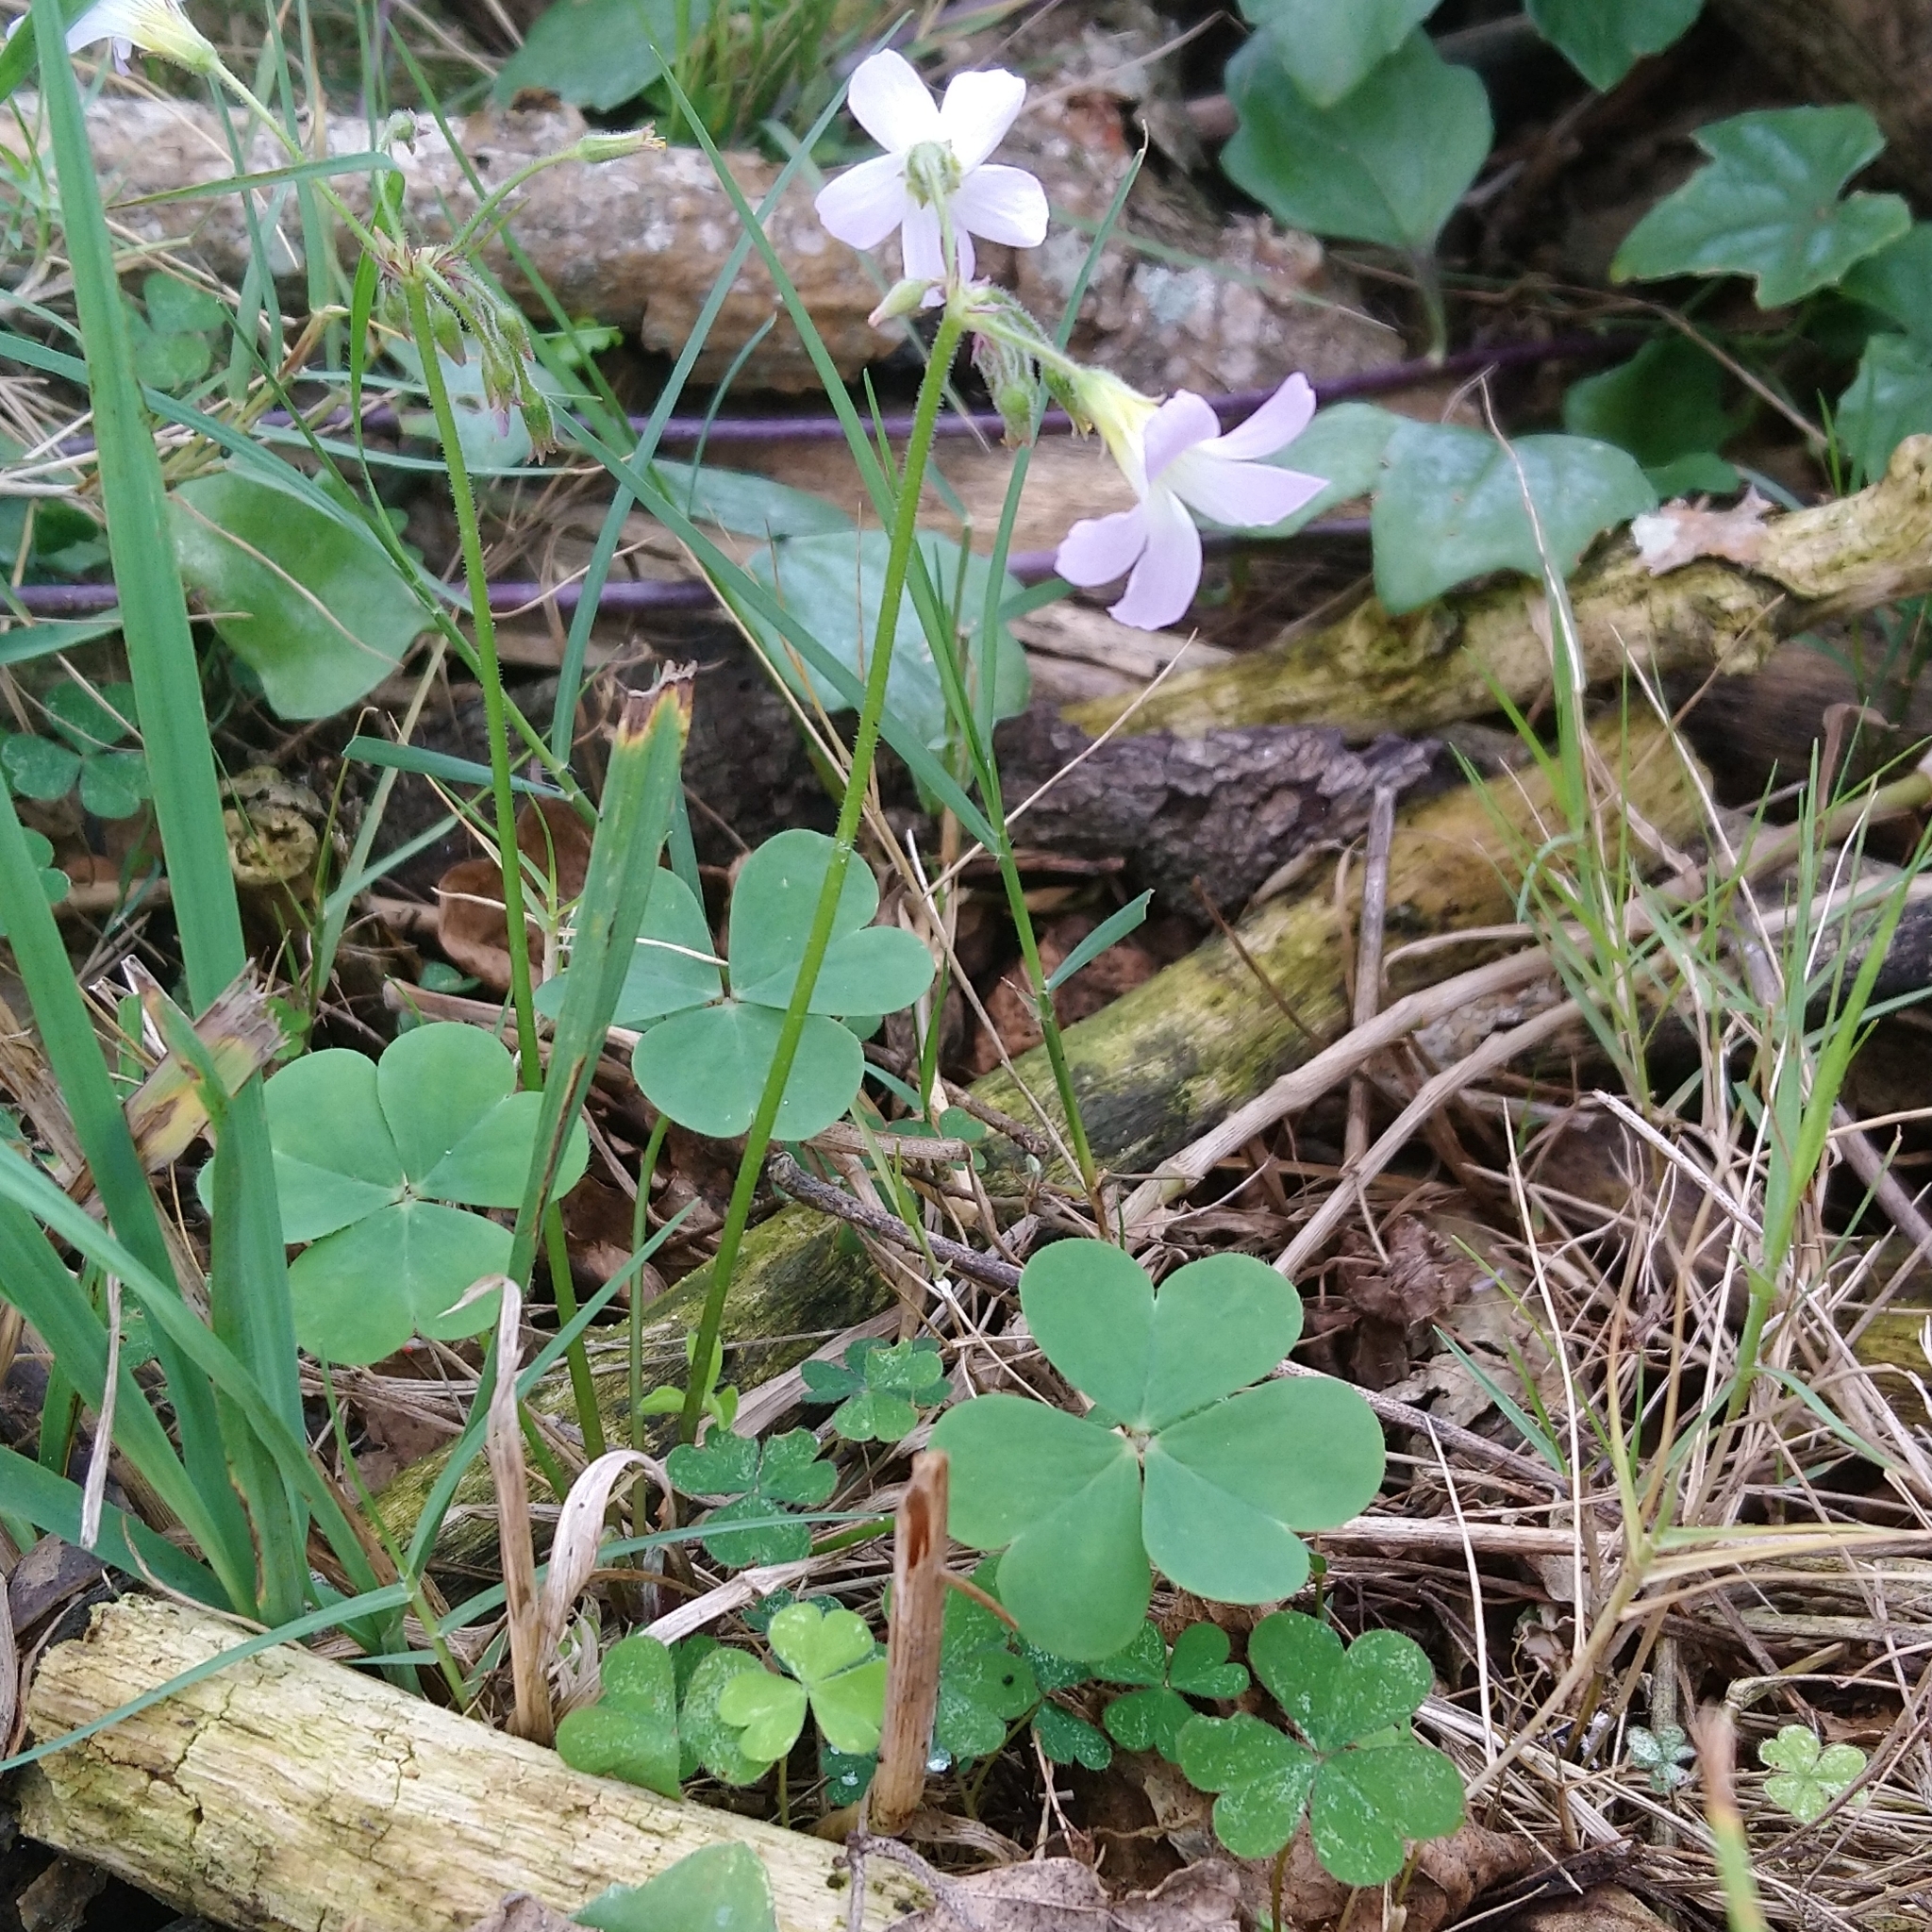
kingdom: Plantae
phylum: Tracheophyta
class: Magnoliopsida
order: Oxalidales
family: Oxalidaceae
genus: Oxalis
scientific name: Oxalis tragopoda
